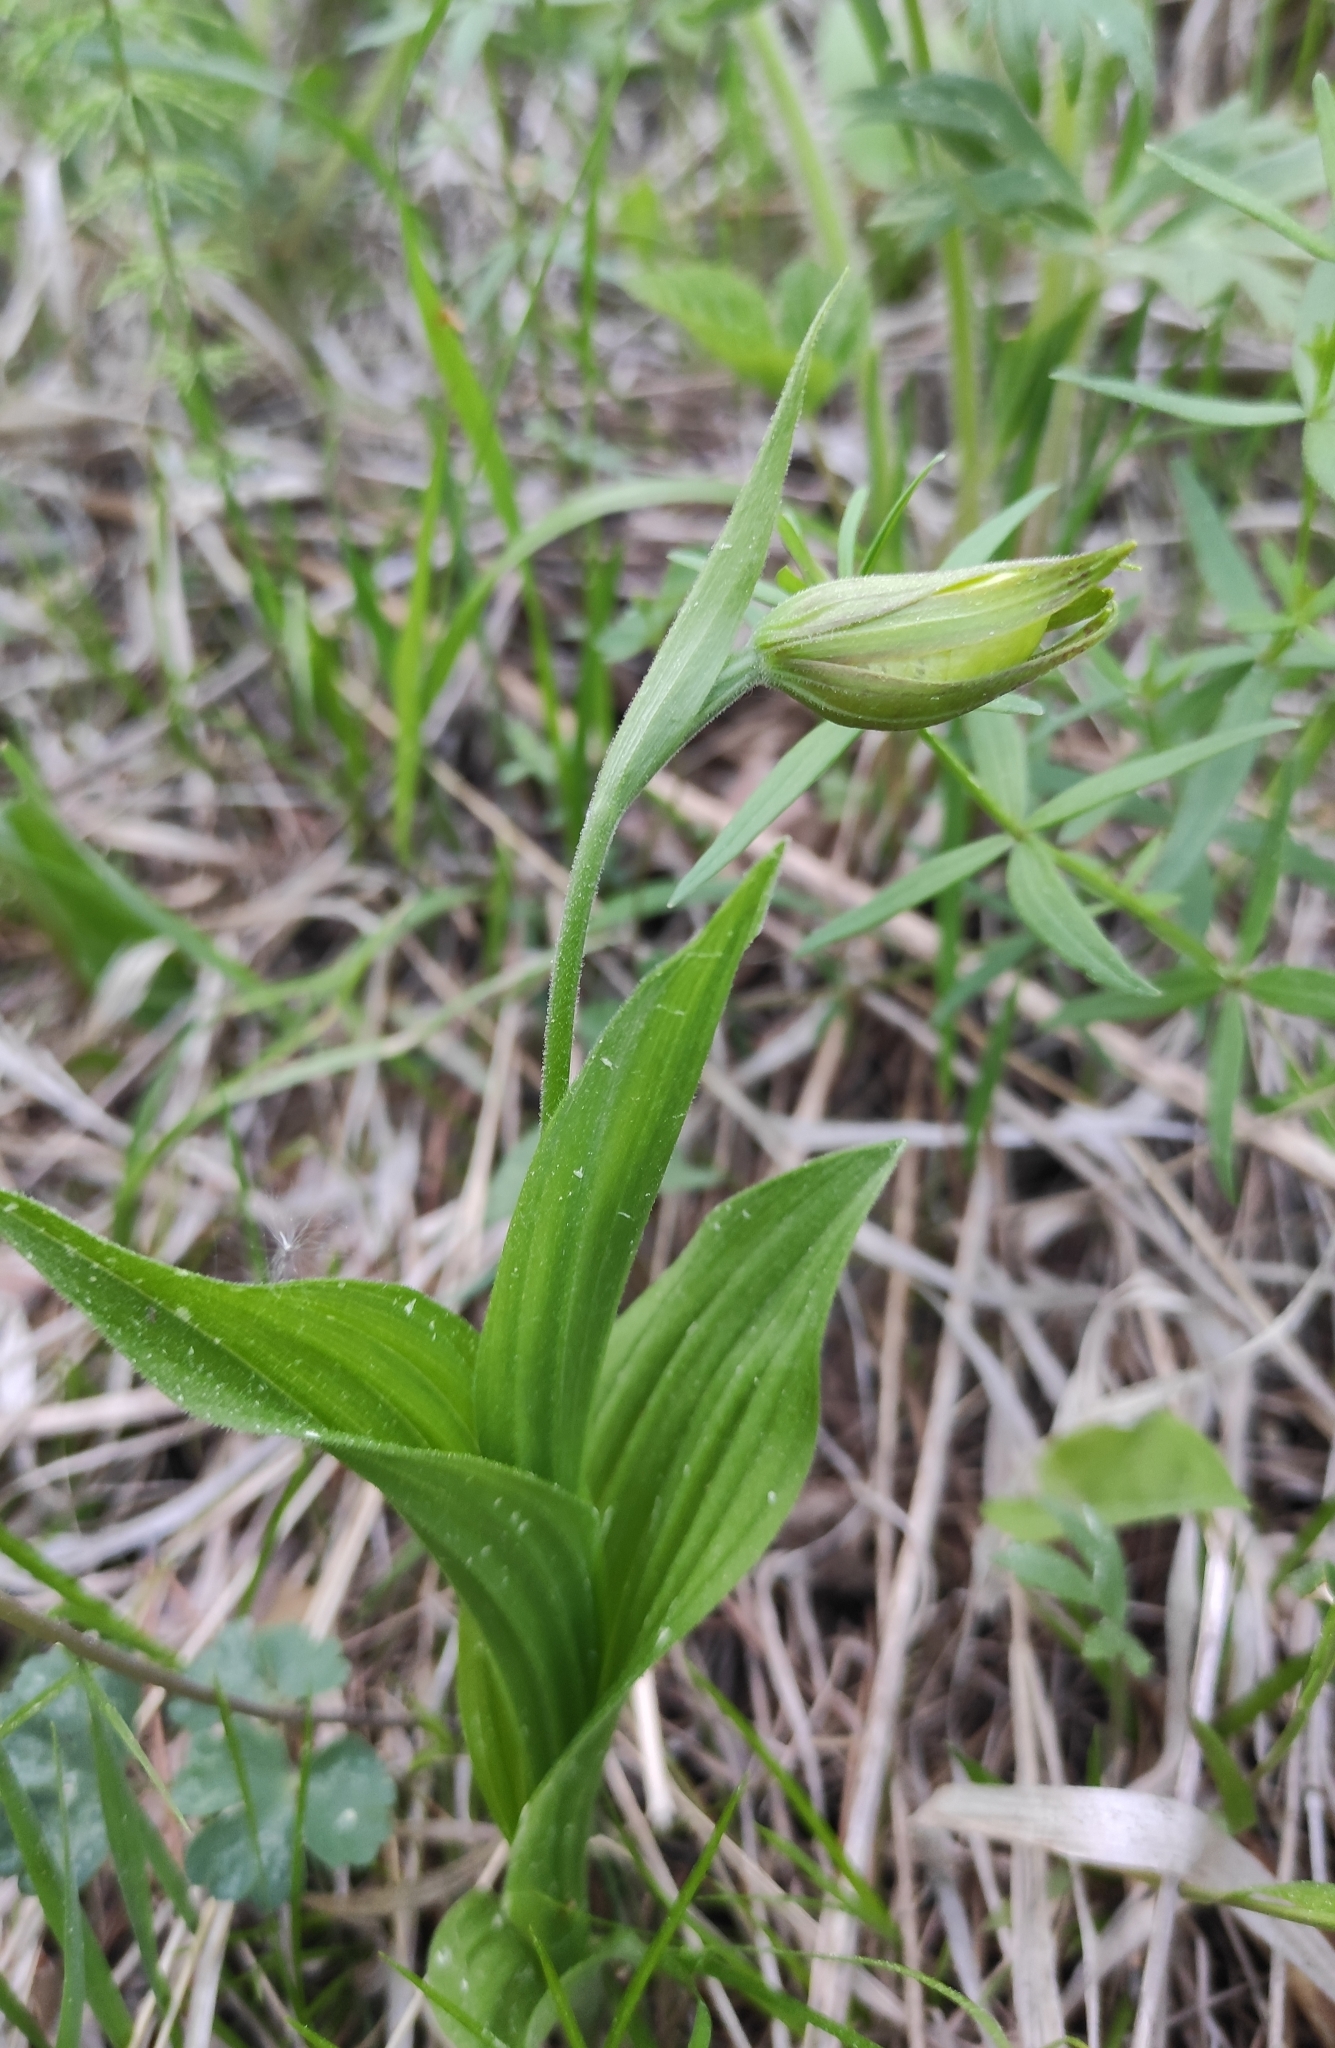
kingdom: Plantae
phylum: Tracheophyta
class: Liliopsida
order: Asparagales
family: Orchidaceae
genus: Cypripedium
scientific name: Cypripedium calceolus
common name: Lady's-slipper
